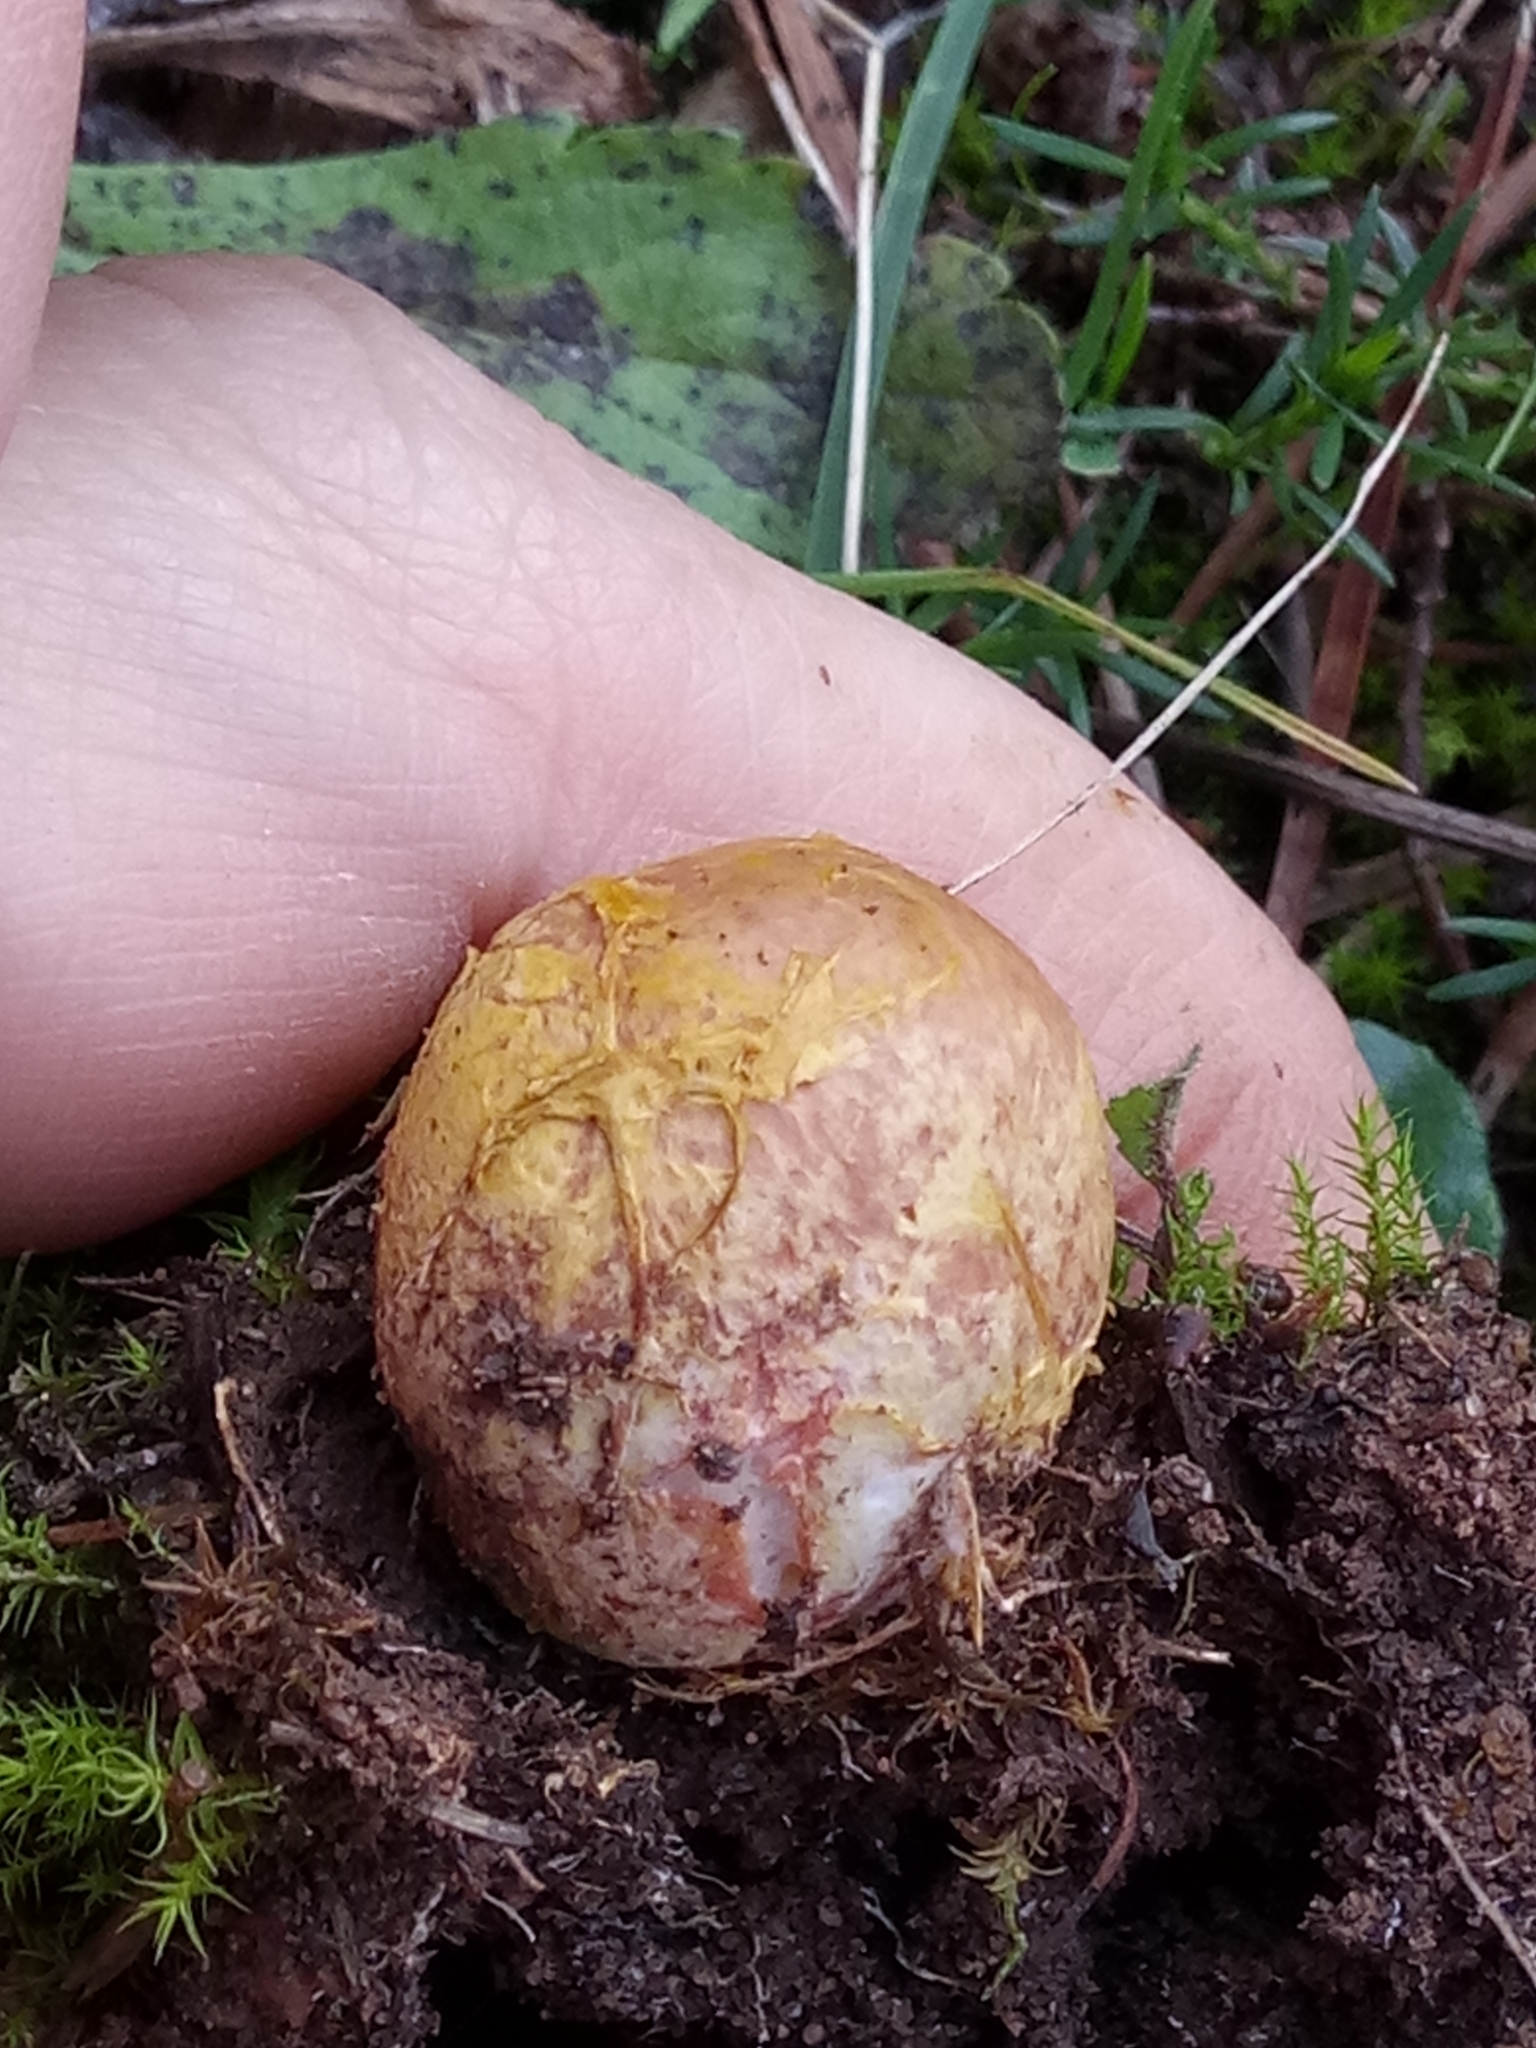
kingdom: Fungi
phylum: Basidiomycota
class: Agaricomycetes
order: Boletales
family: Rhizopogonaceae
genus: Rhizopogon
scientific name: Rhizopogon roseolus
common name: Blushing beard truffle
